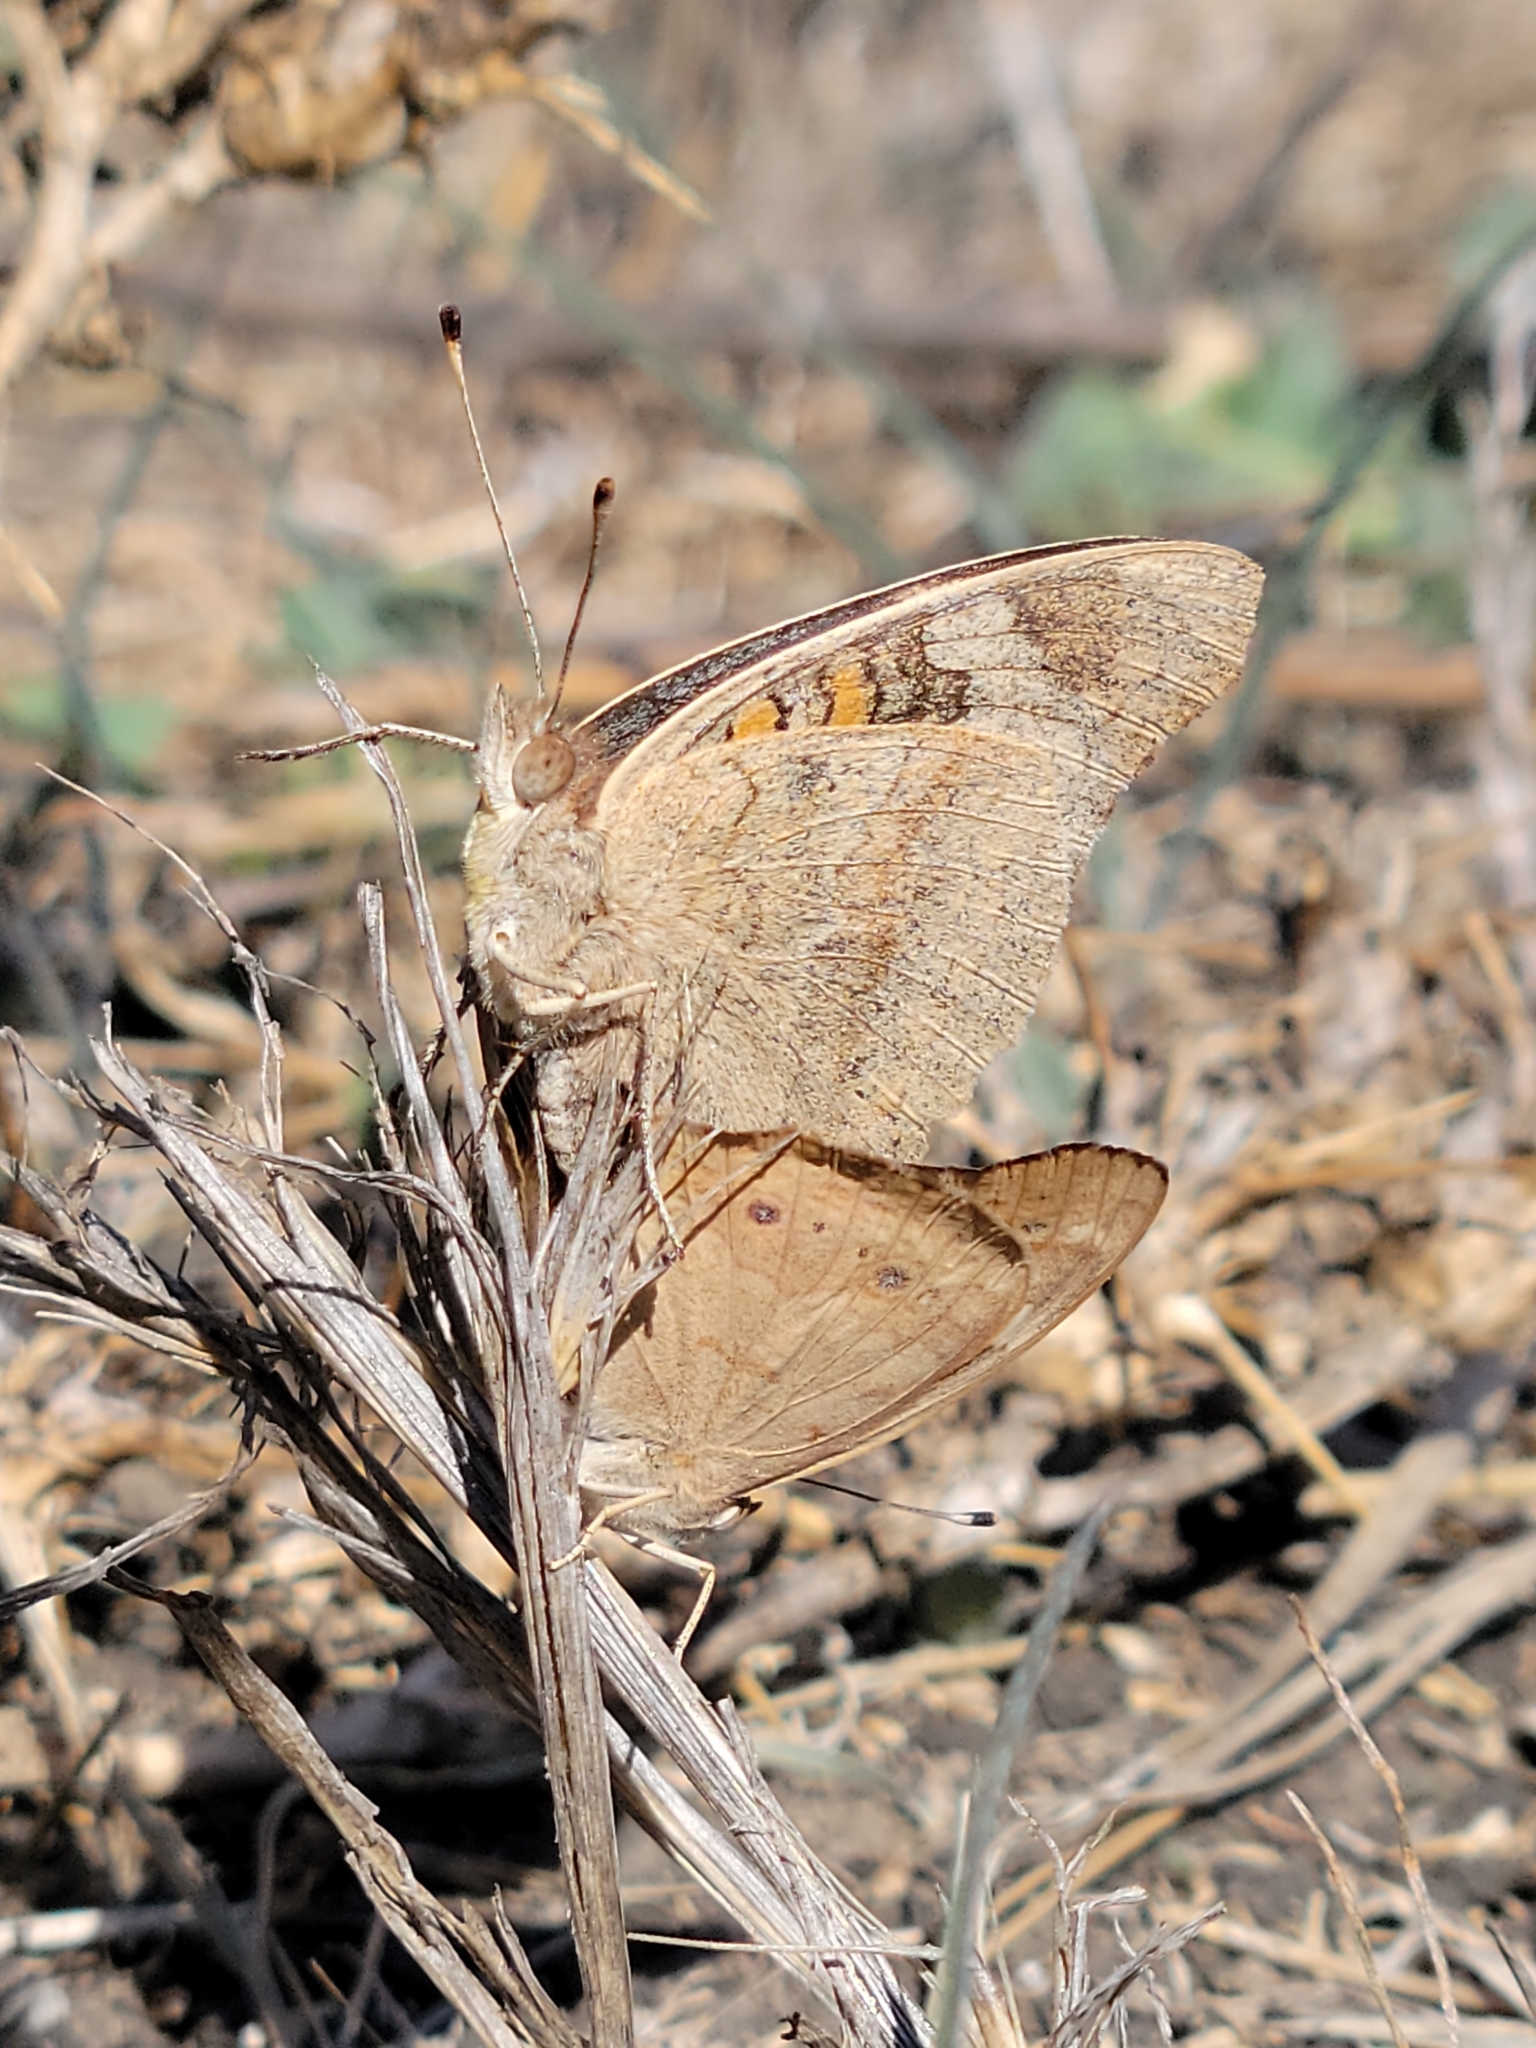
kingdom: Animalia
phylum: Arthropoda
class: Insecta
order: Lepidoptera
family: Nymphalidae
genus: Junonia
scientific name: Junonia grisea
